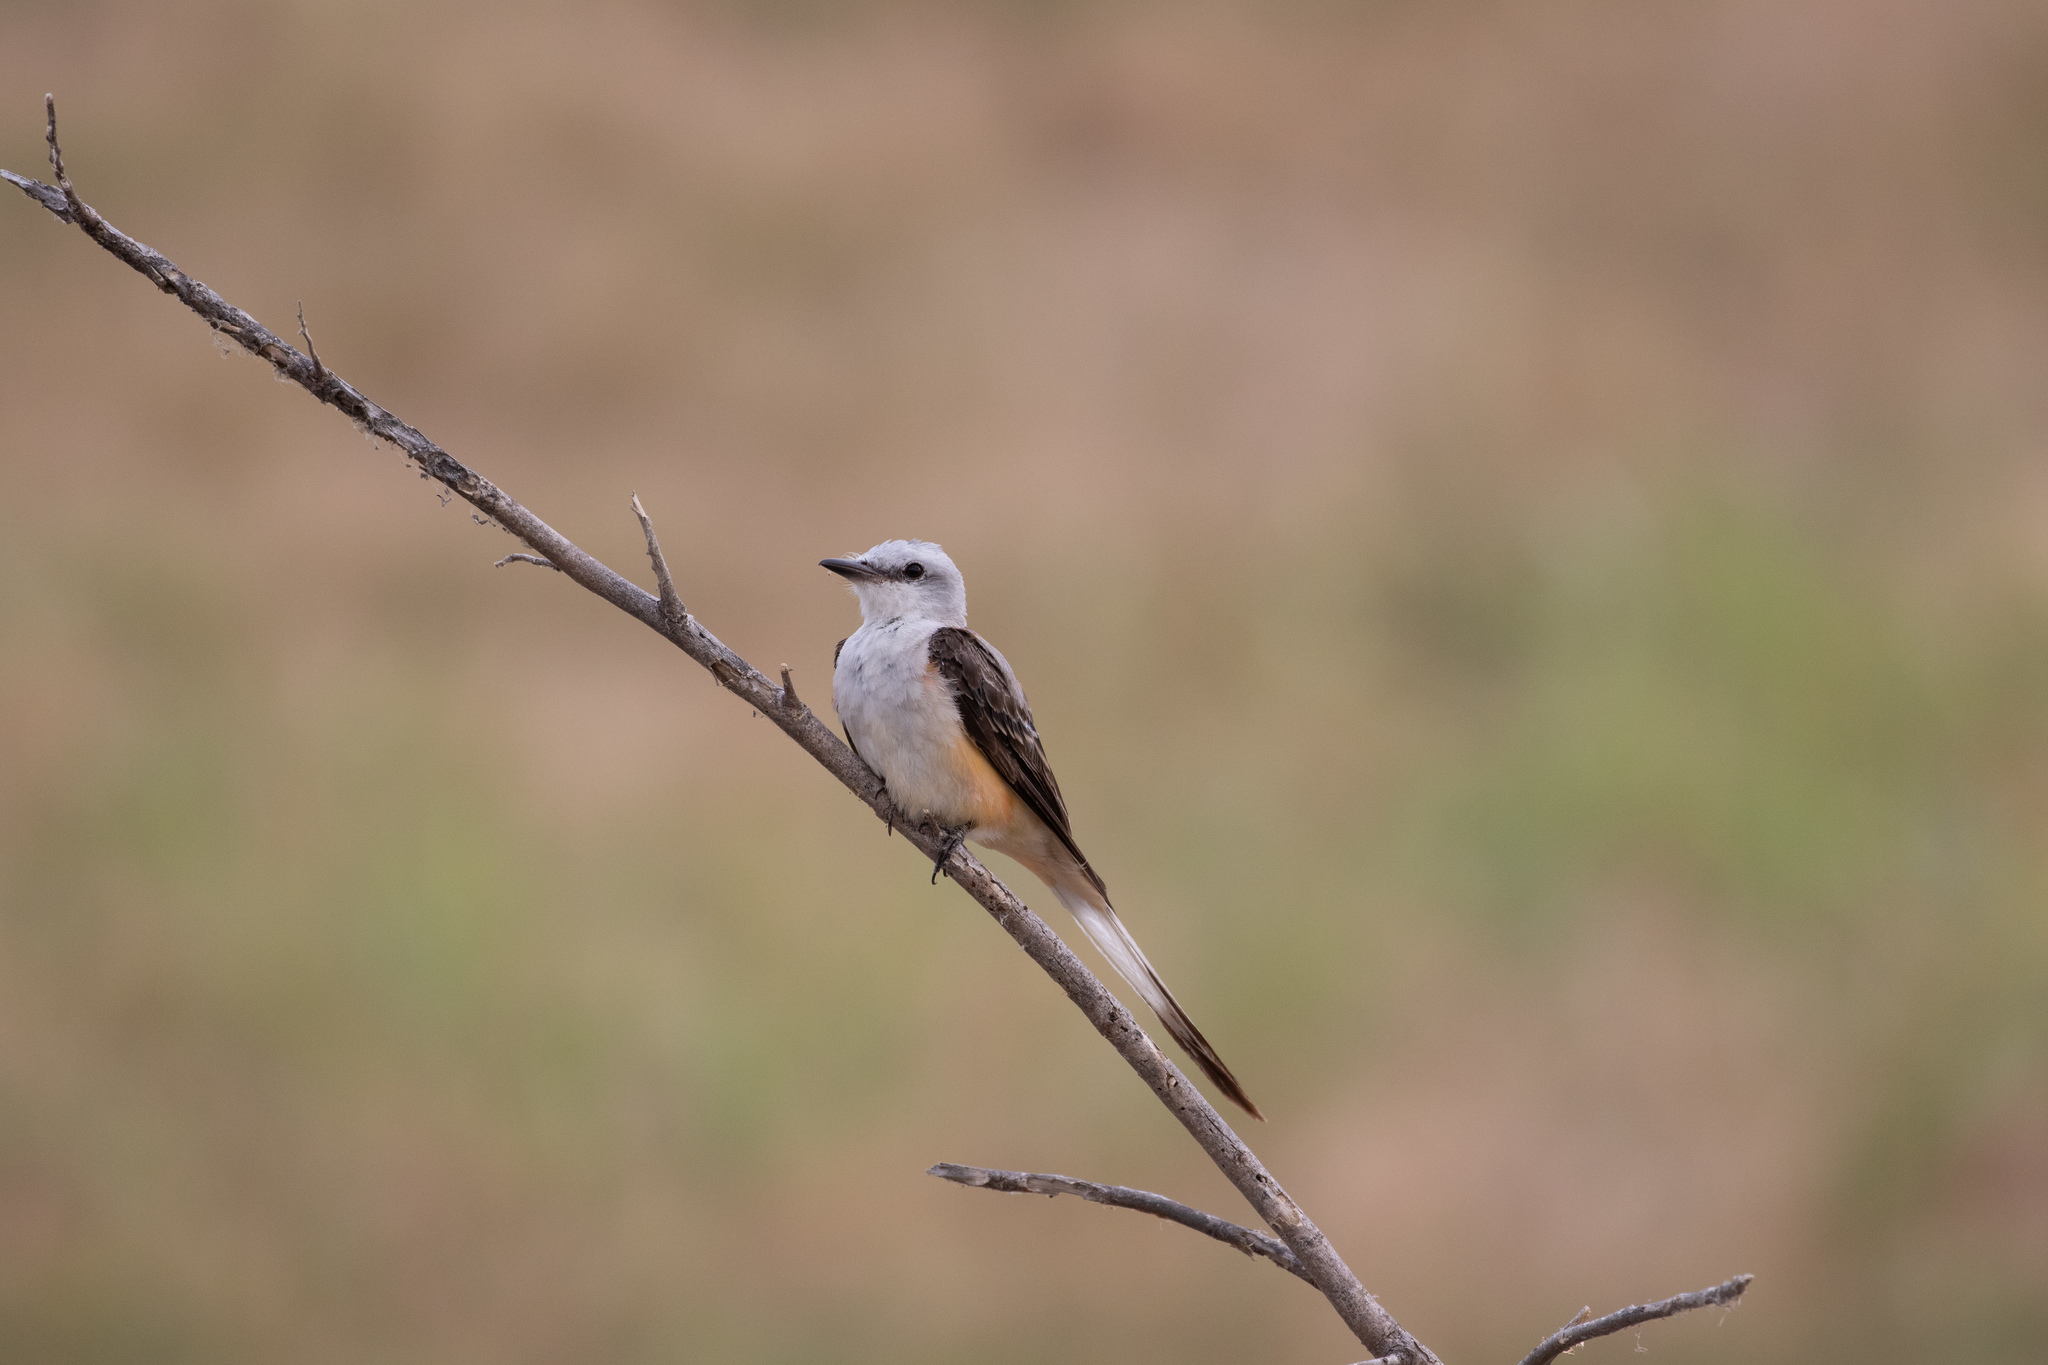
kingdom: Animalia
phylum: Chordata
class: Aves
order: Passeriformes
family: Tyrannidae
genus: Tyrannus
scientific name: Tyrannus forficatus
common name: Scissor-tailed flycatcher
